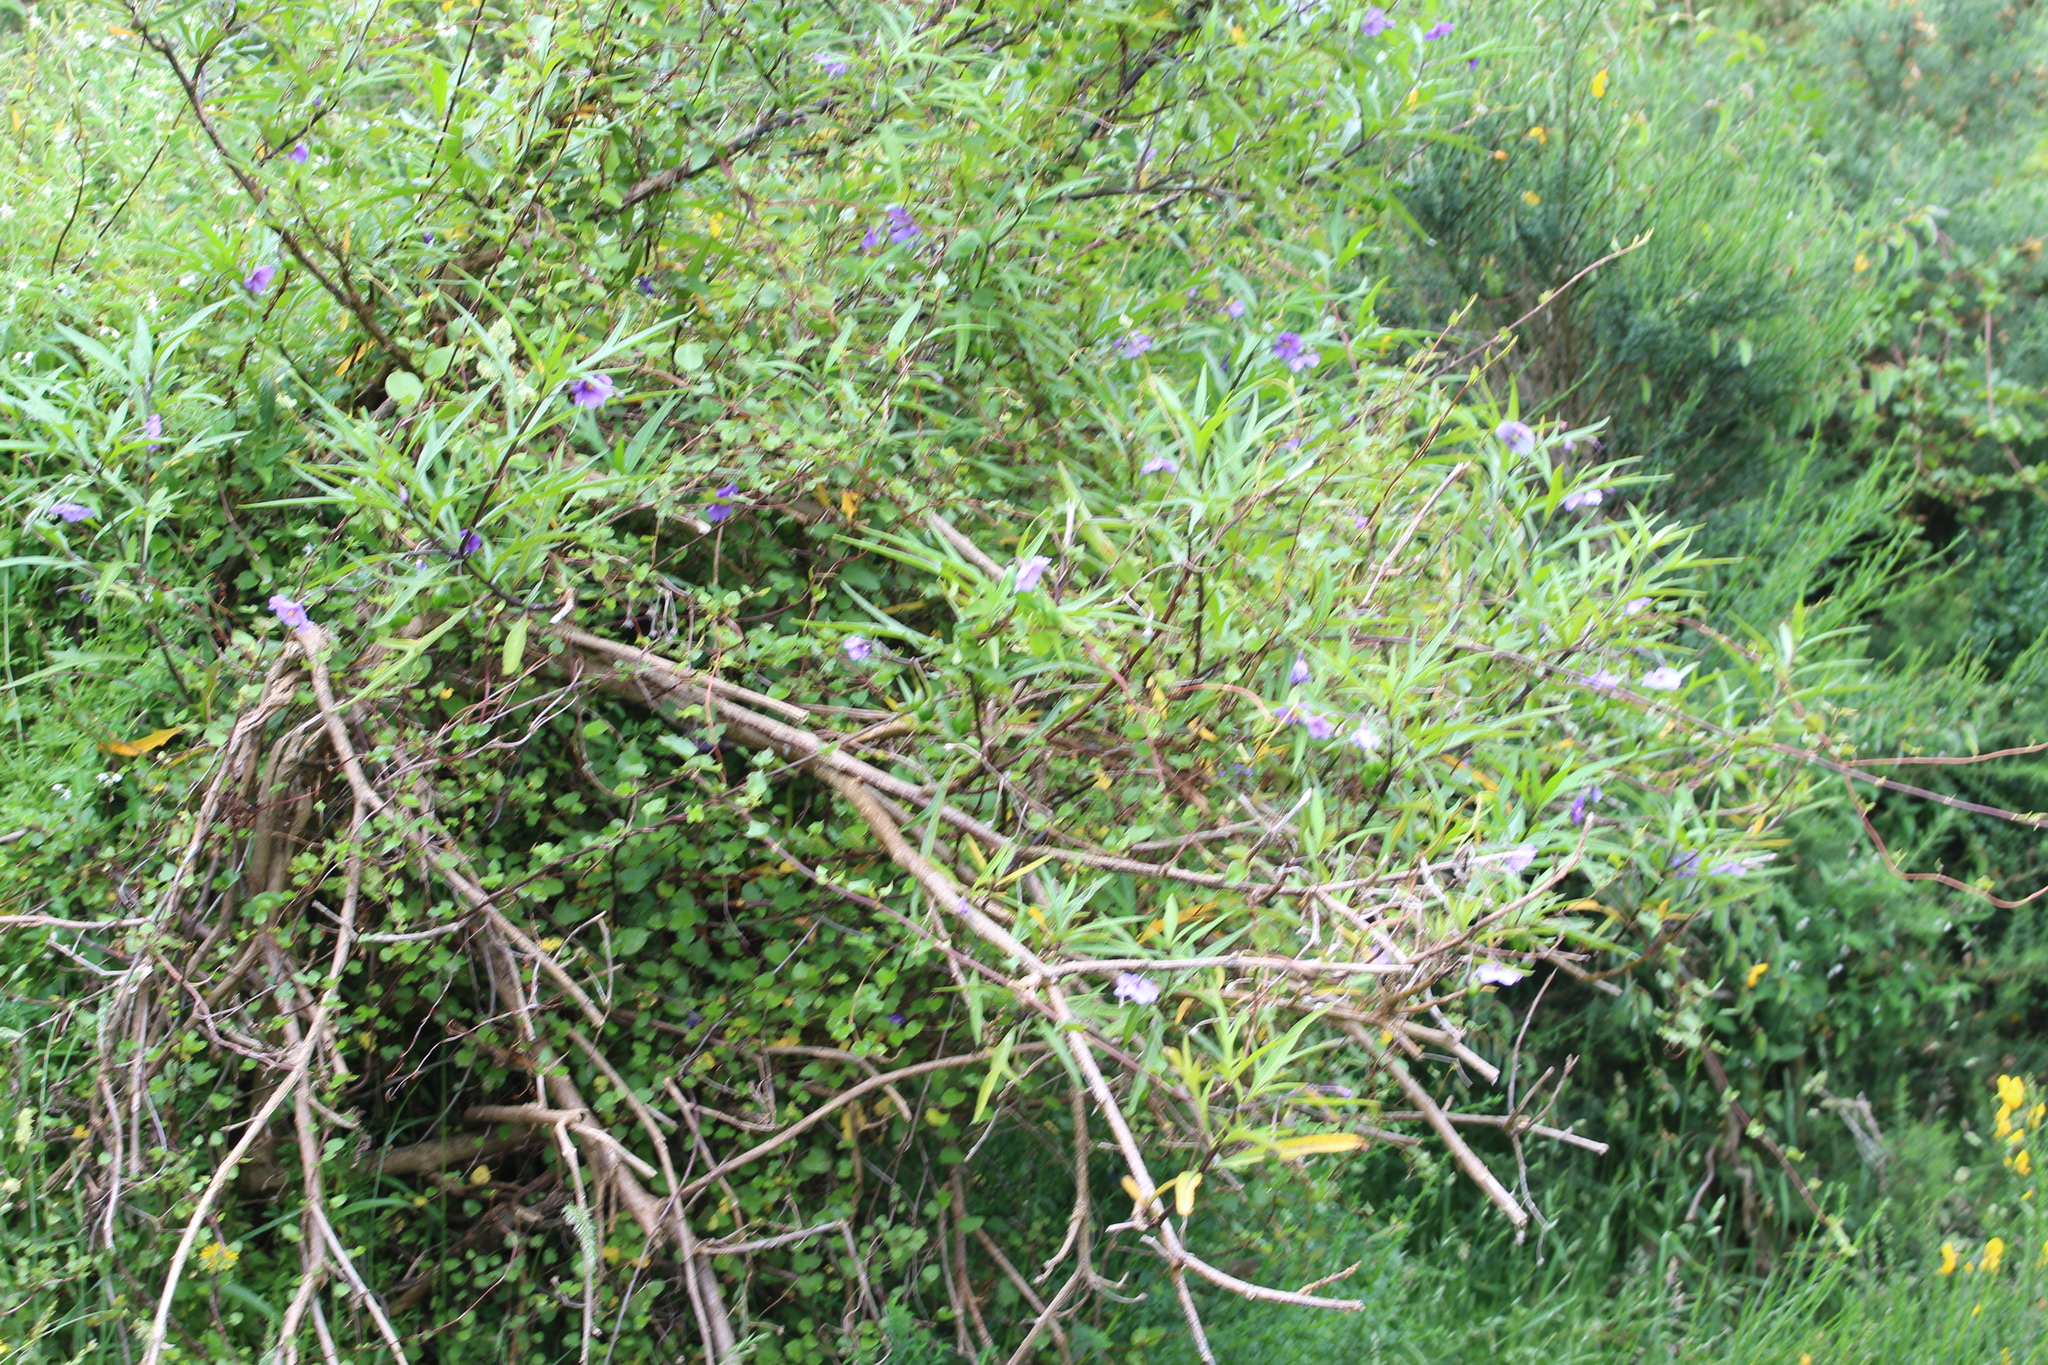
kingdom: Plantae
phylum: Tracheophyta
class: Magnoliopsida
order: Solanales
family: Solanaceae
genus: Solanum
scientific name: Solanum laciniatum
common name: Kangaroo-apple
